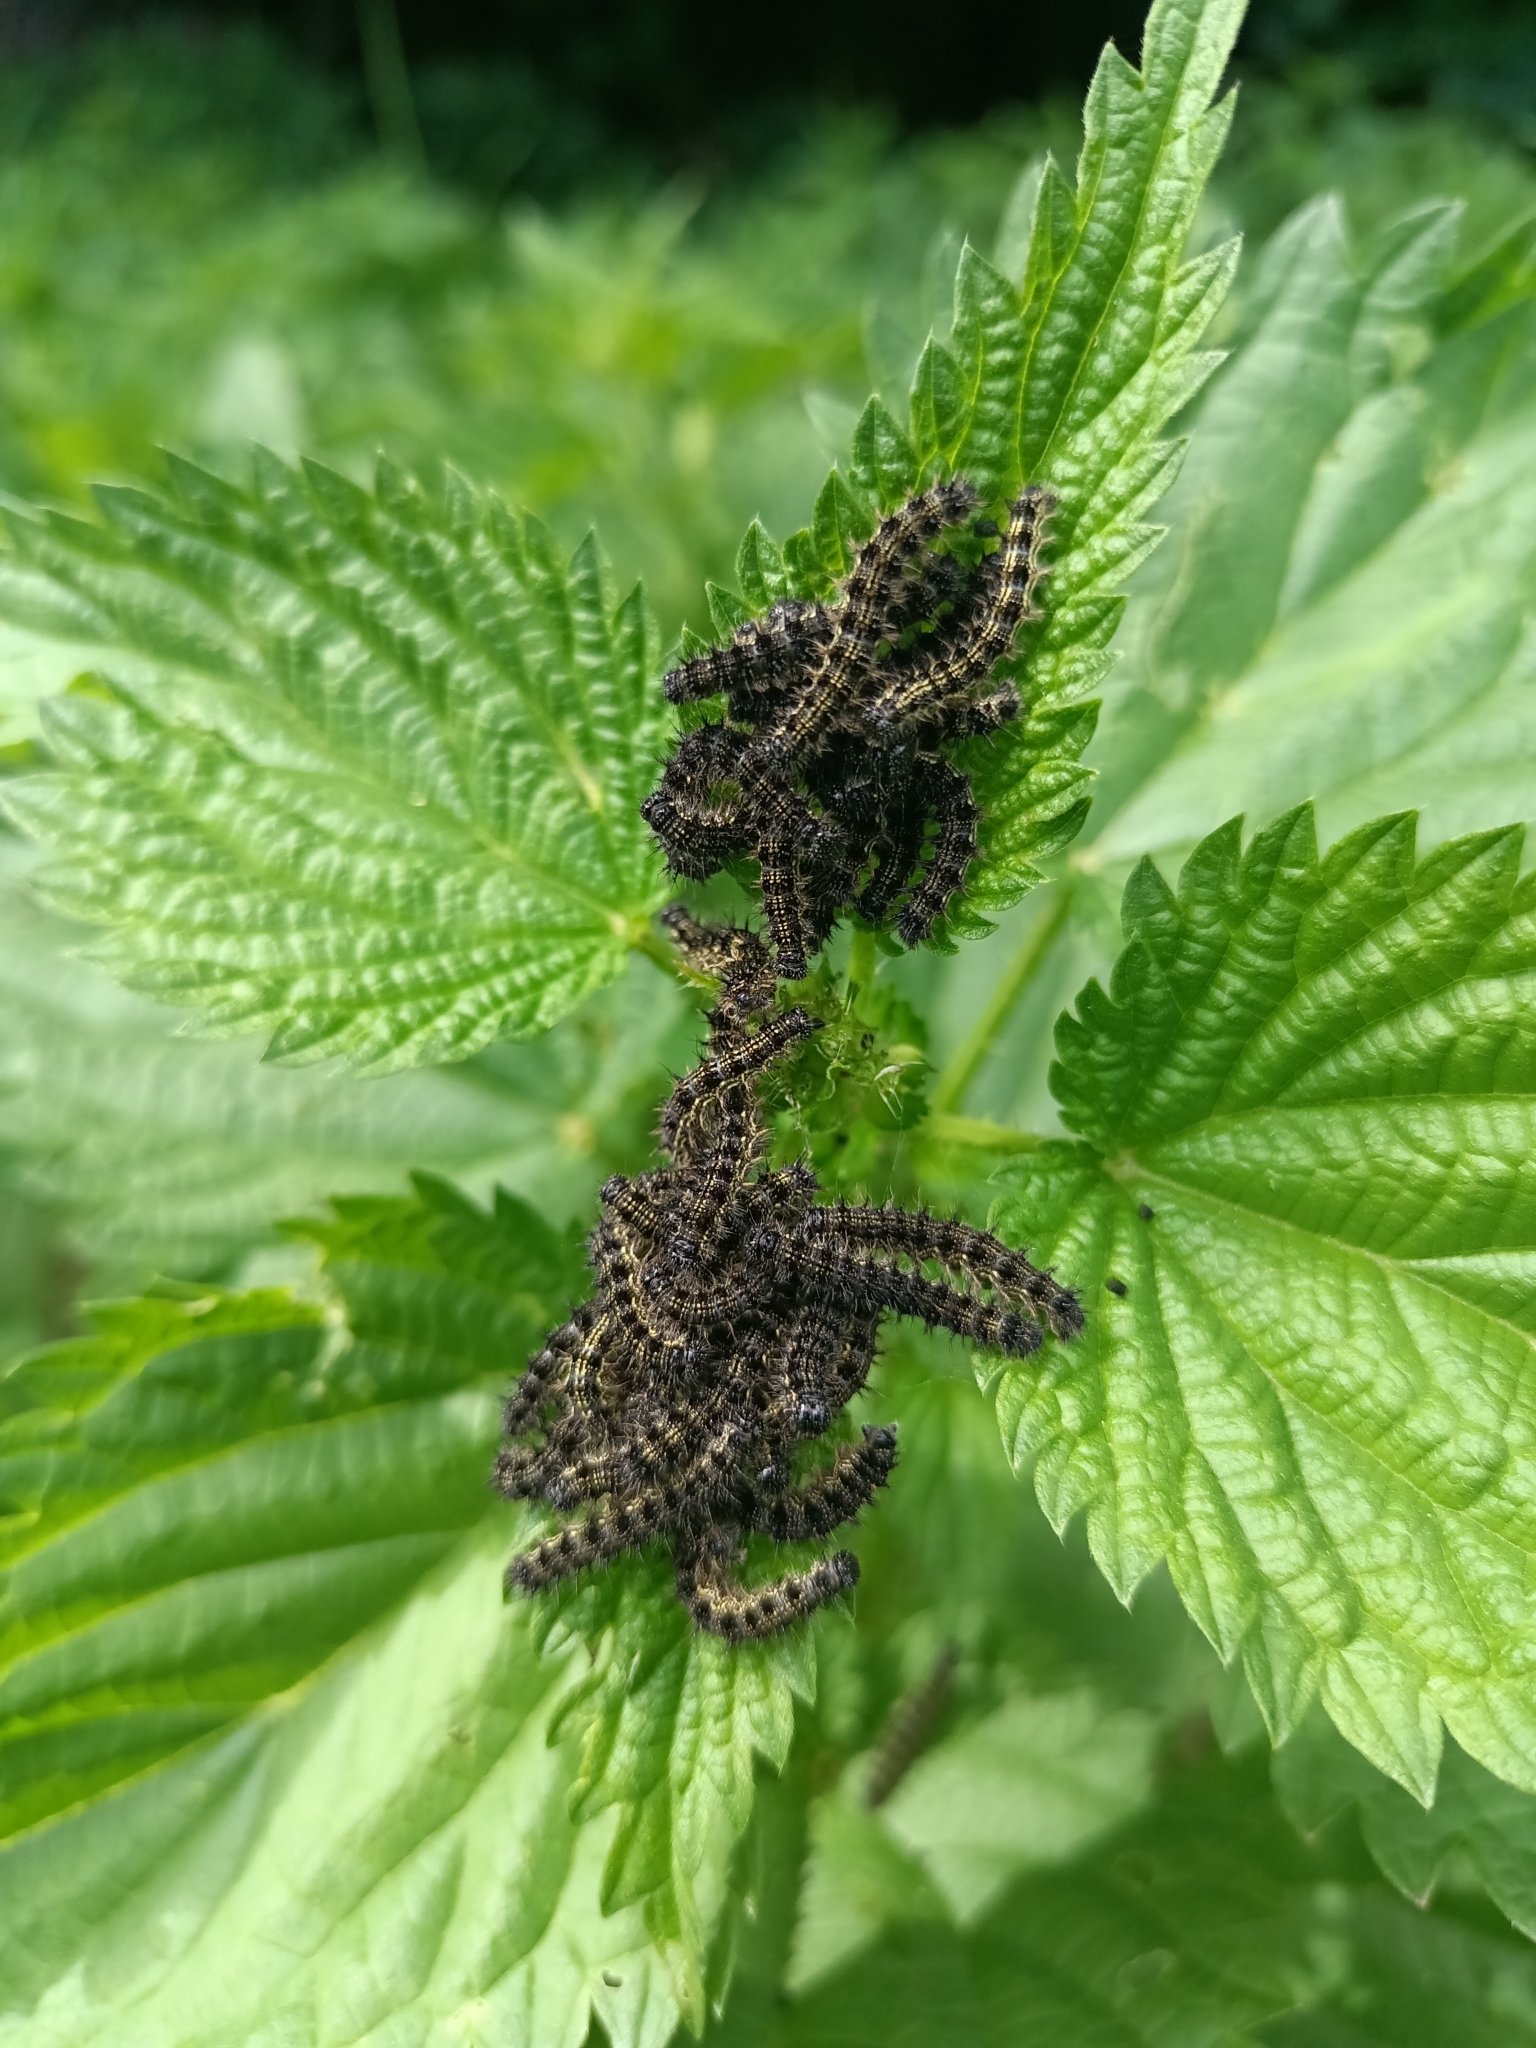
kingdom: Animalia
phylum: Arthropoda
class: Insecta
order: Lepidoptera
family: Nymphalidae
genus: Aglais
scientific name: Aglais urticae
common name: Small tortoiseshell
